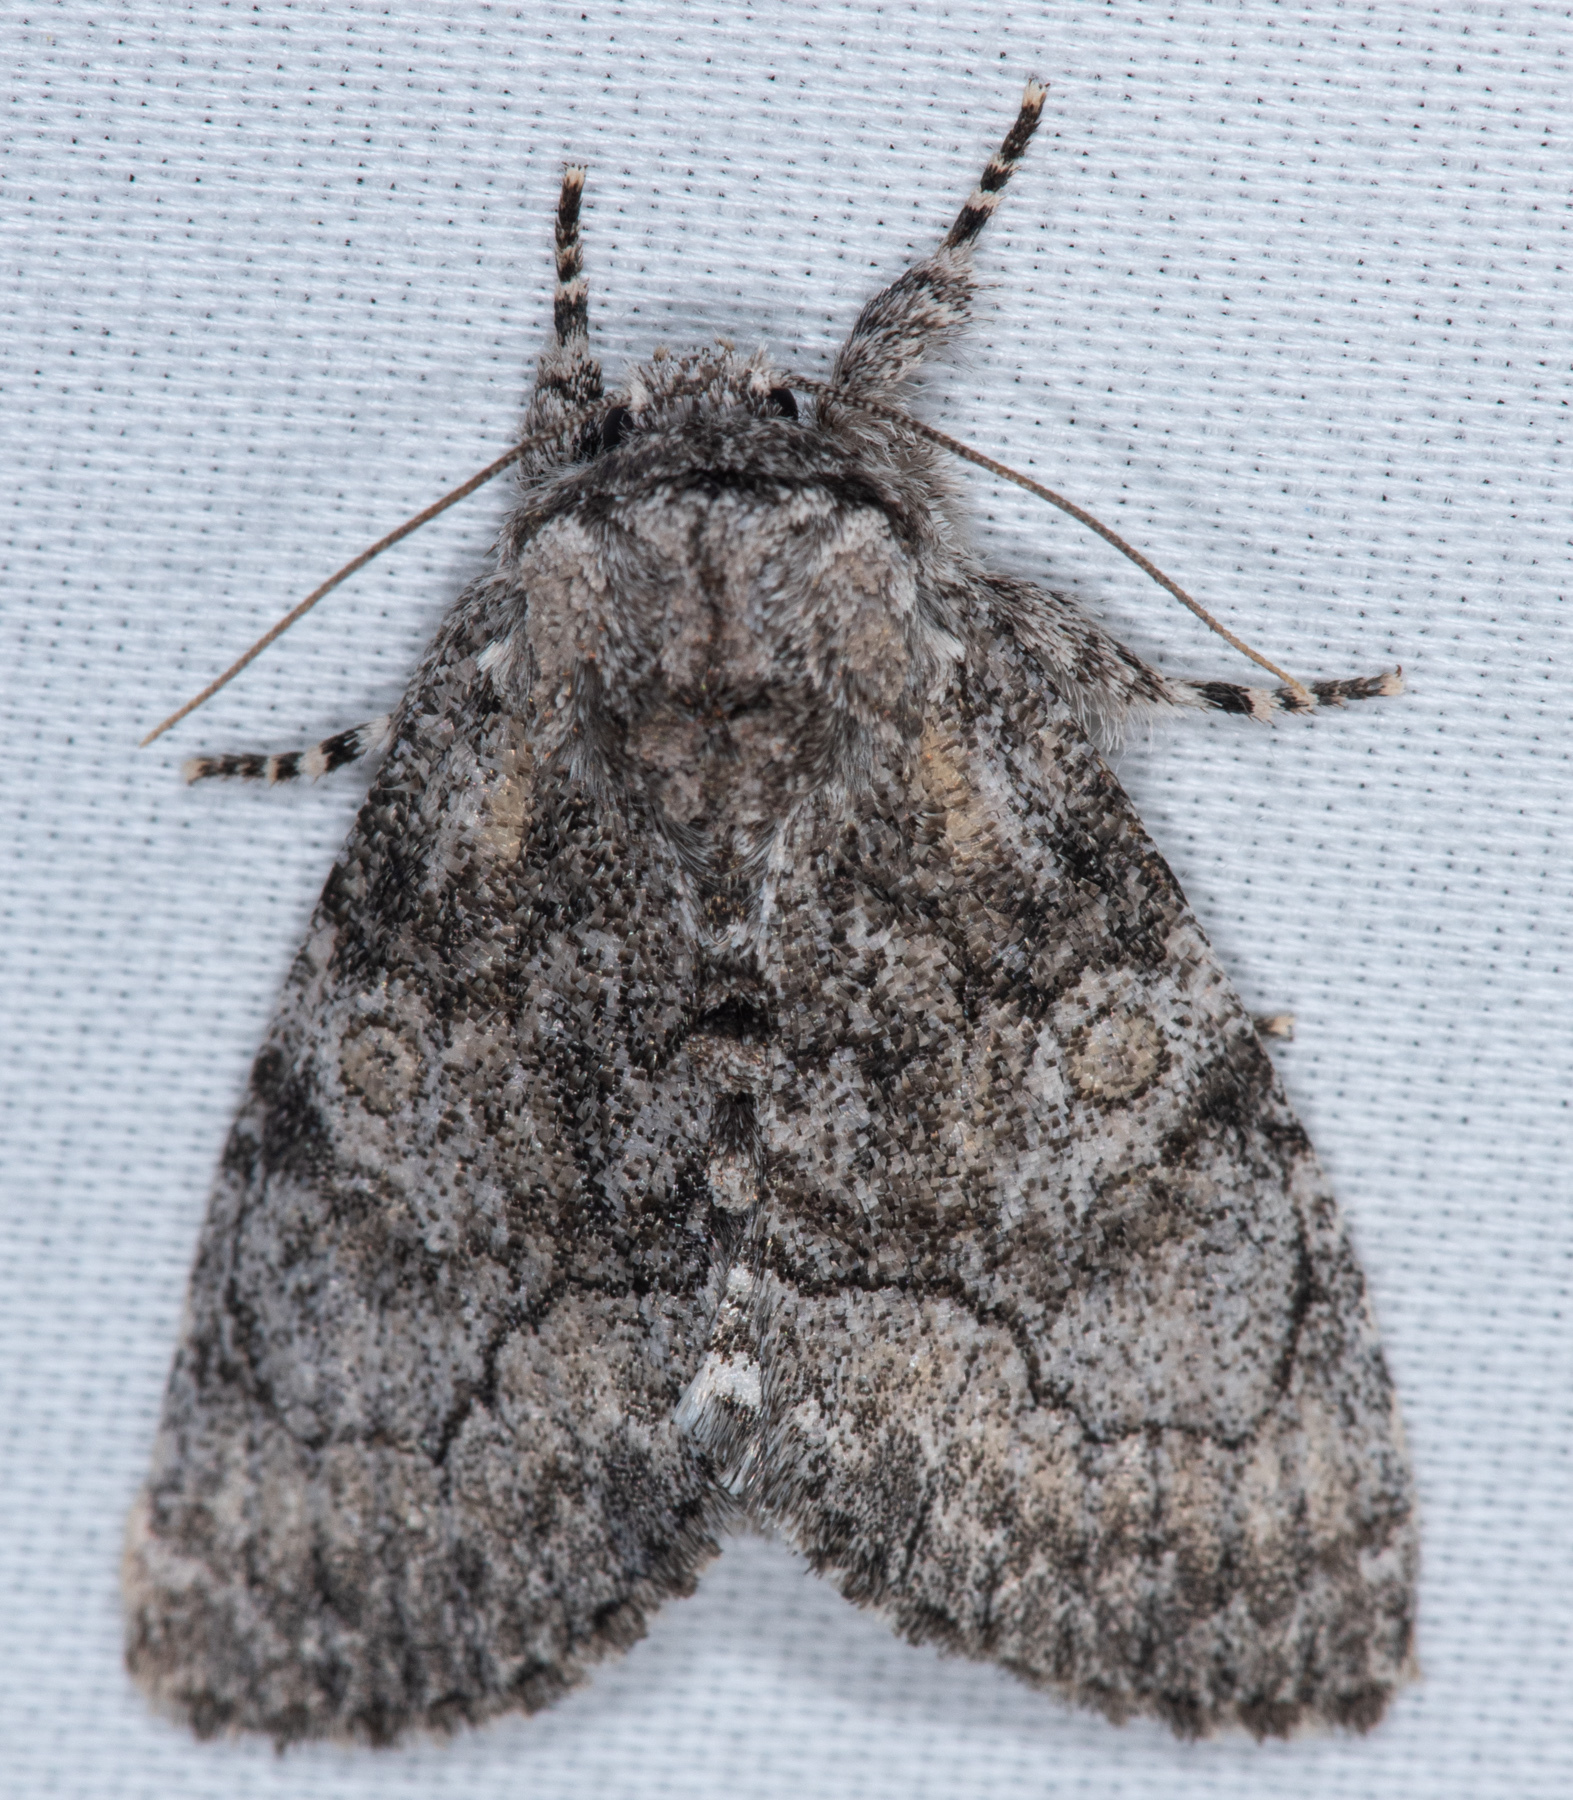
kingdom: Animalia
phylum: Arthropoda
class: Insecta
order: Lepidoptera
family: Noctuidae
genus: Raphia
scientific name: Raphia frater
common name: Brother
